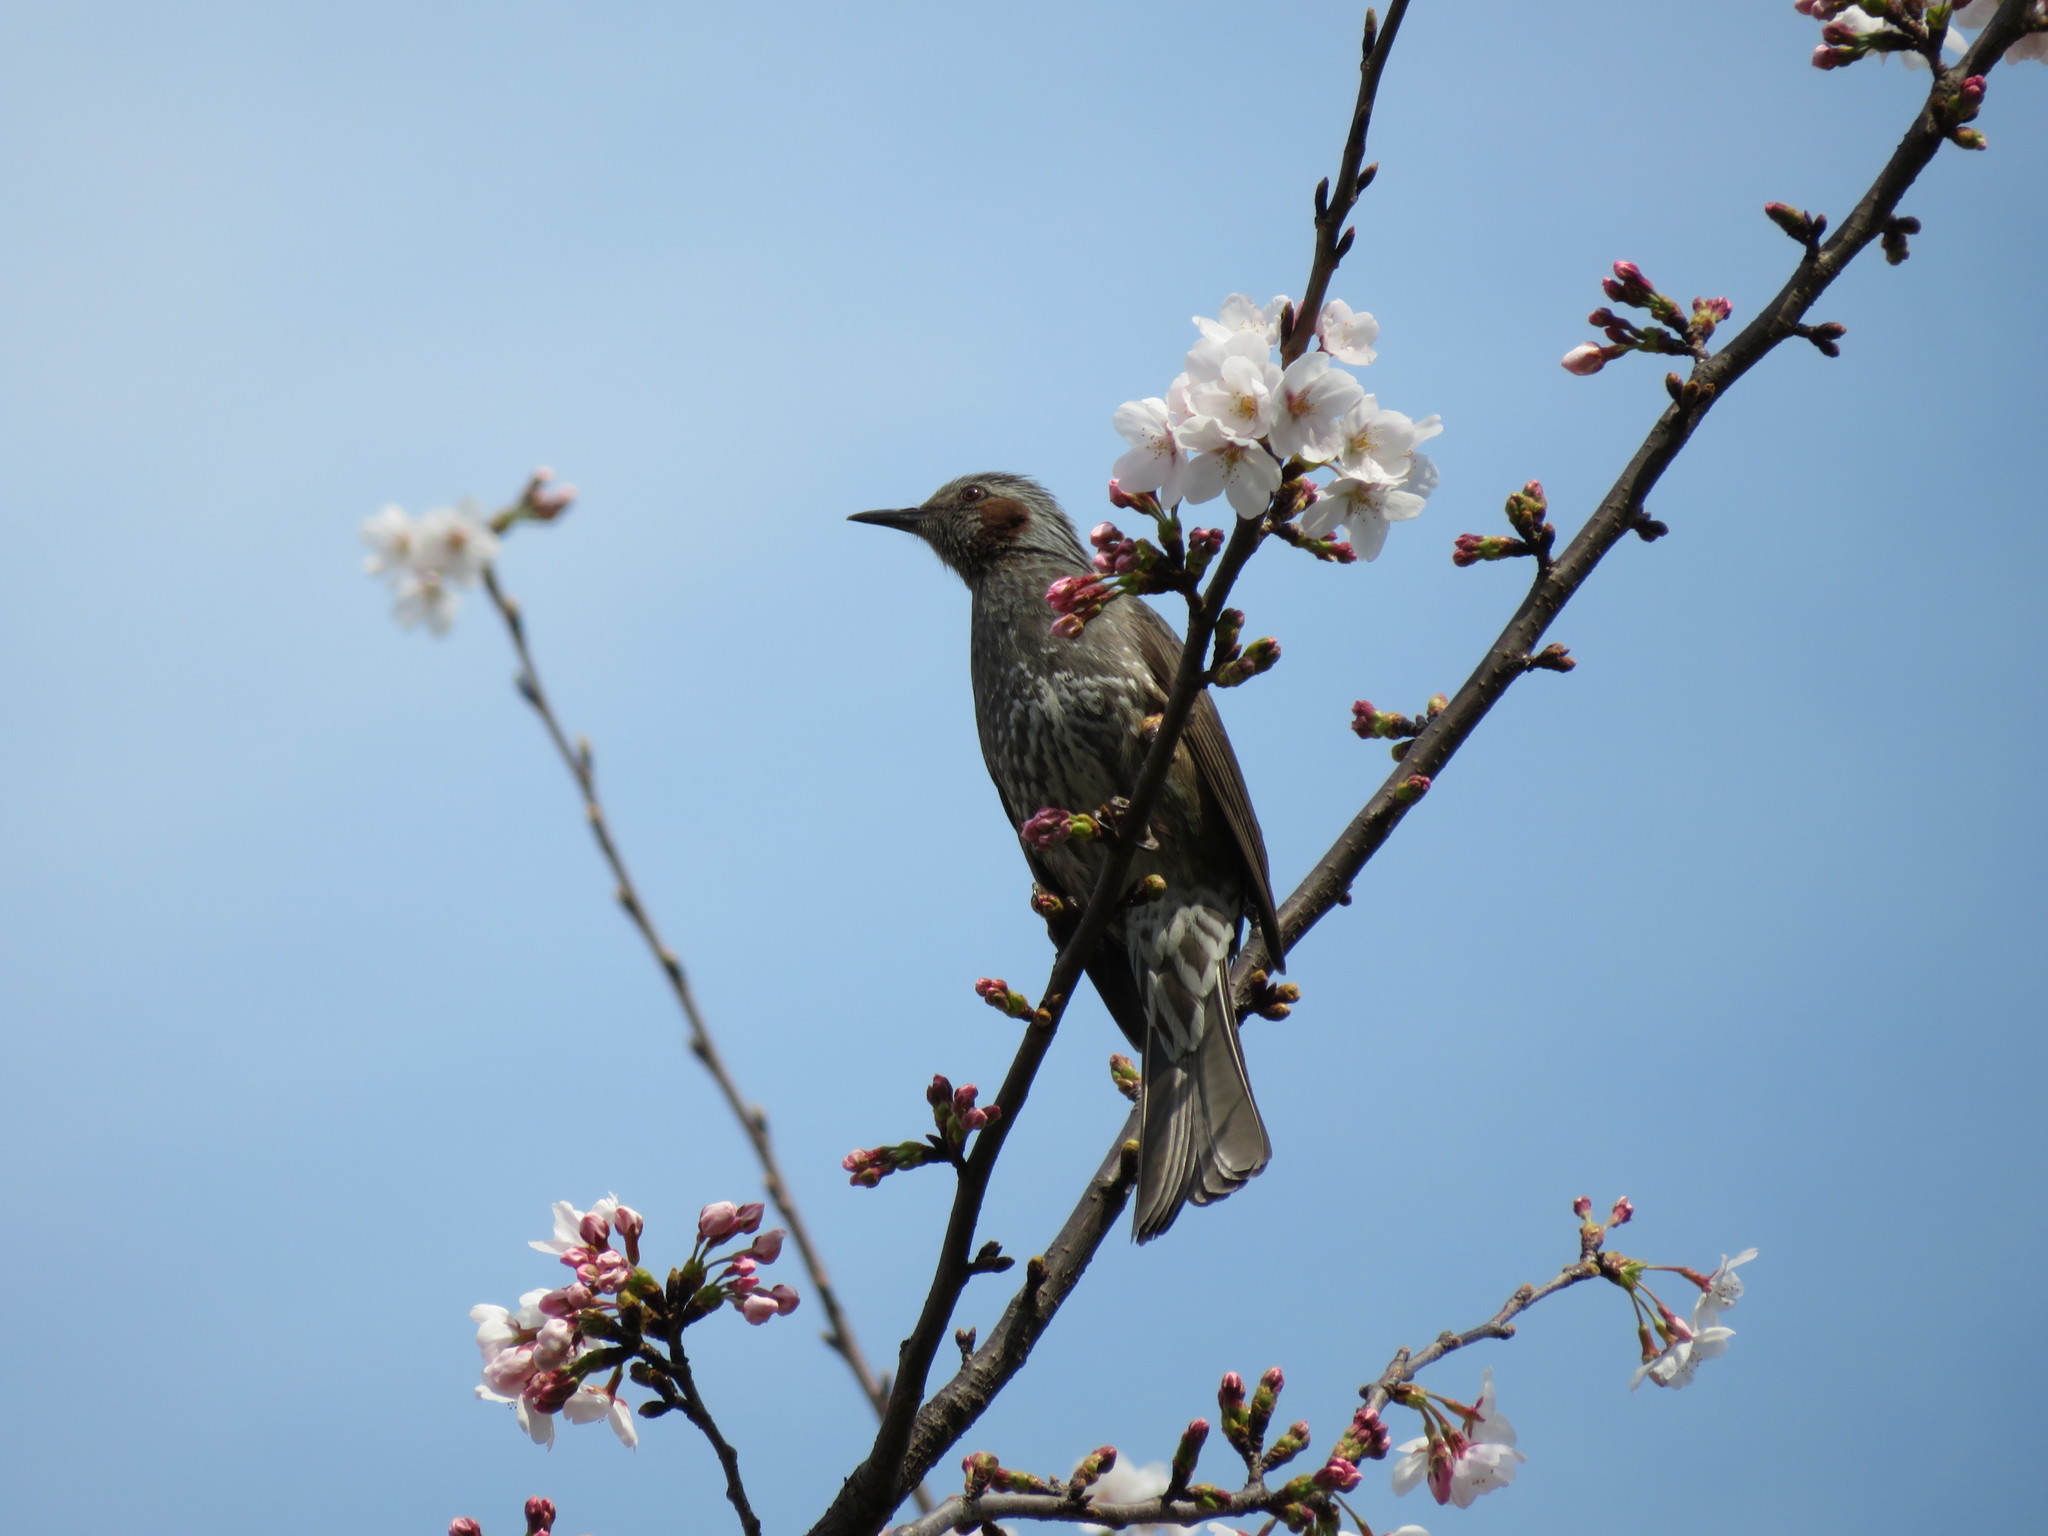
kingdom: Animalia
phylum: Chordata
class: Aves
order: Passeriformes
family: Pycnonotidae
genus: Hypsipetes
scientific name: Hypsipetes amaurotis
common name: Brown-eared bulbul
